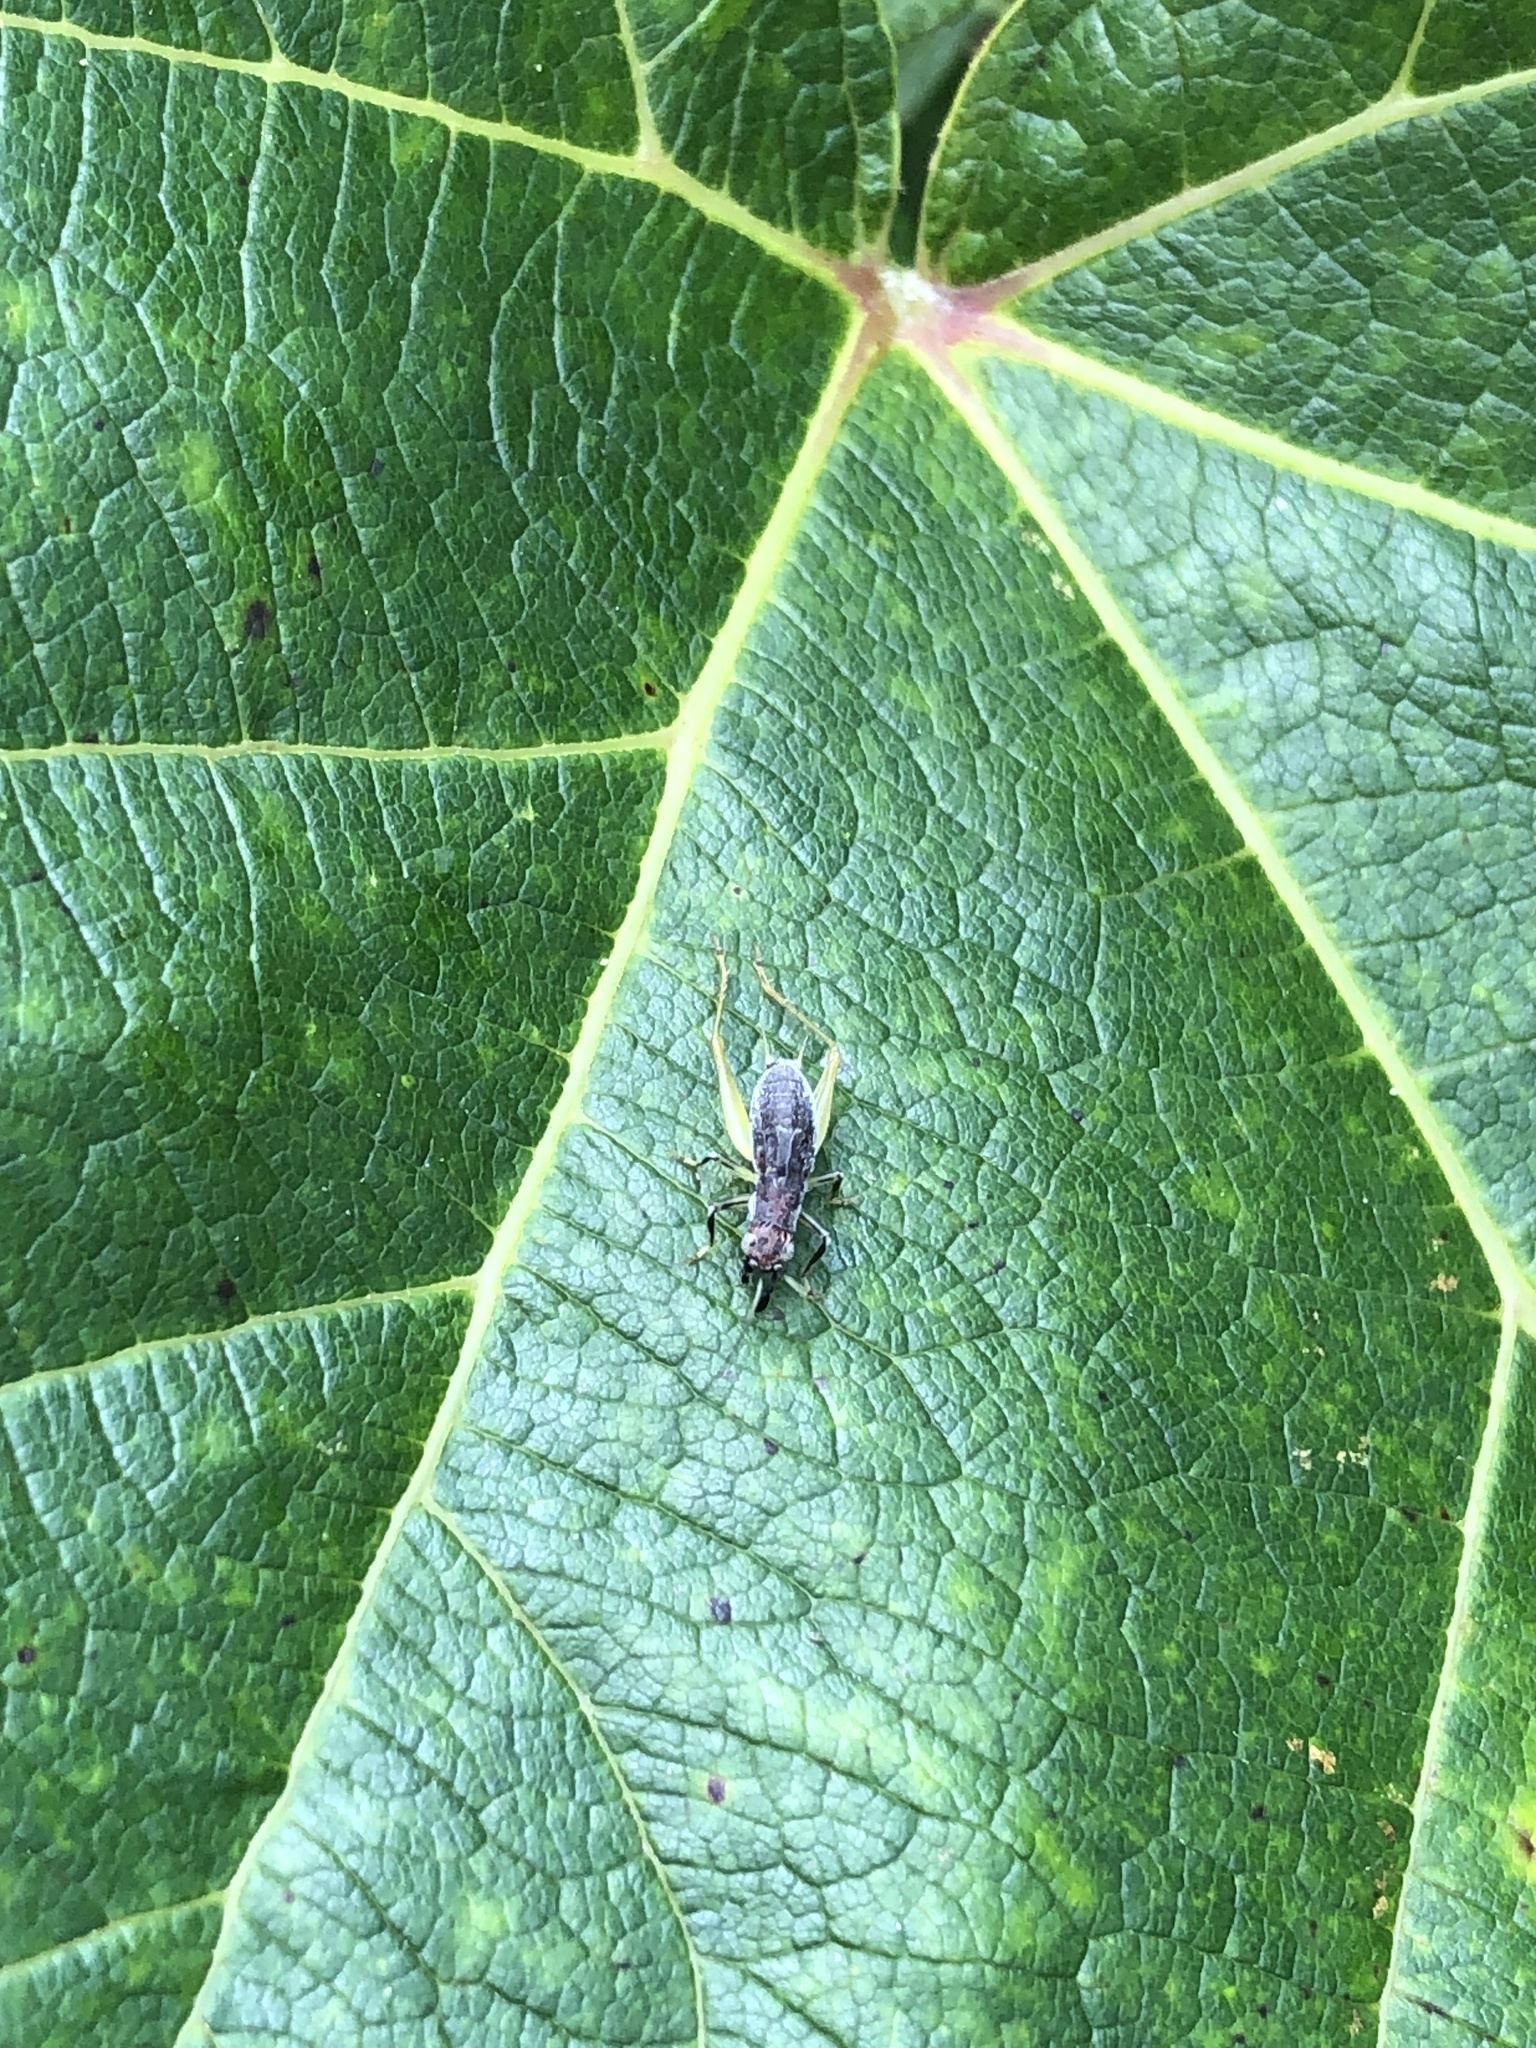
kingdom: Animalia
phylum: Arthropoda
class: Insecta
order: Orthoptera
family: Trigonidiidae
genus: Phyllopalpus
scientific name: Phyllopalpus pulchellus
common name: Handsome trig
